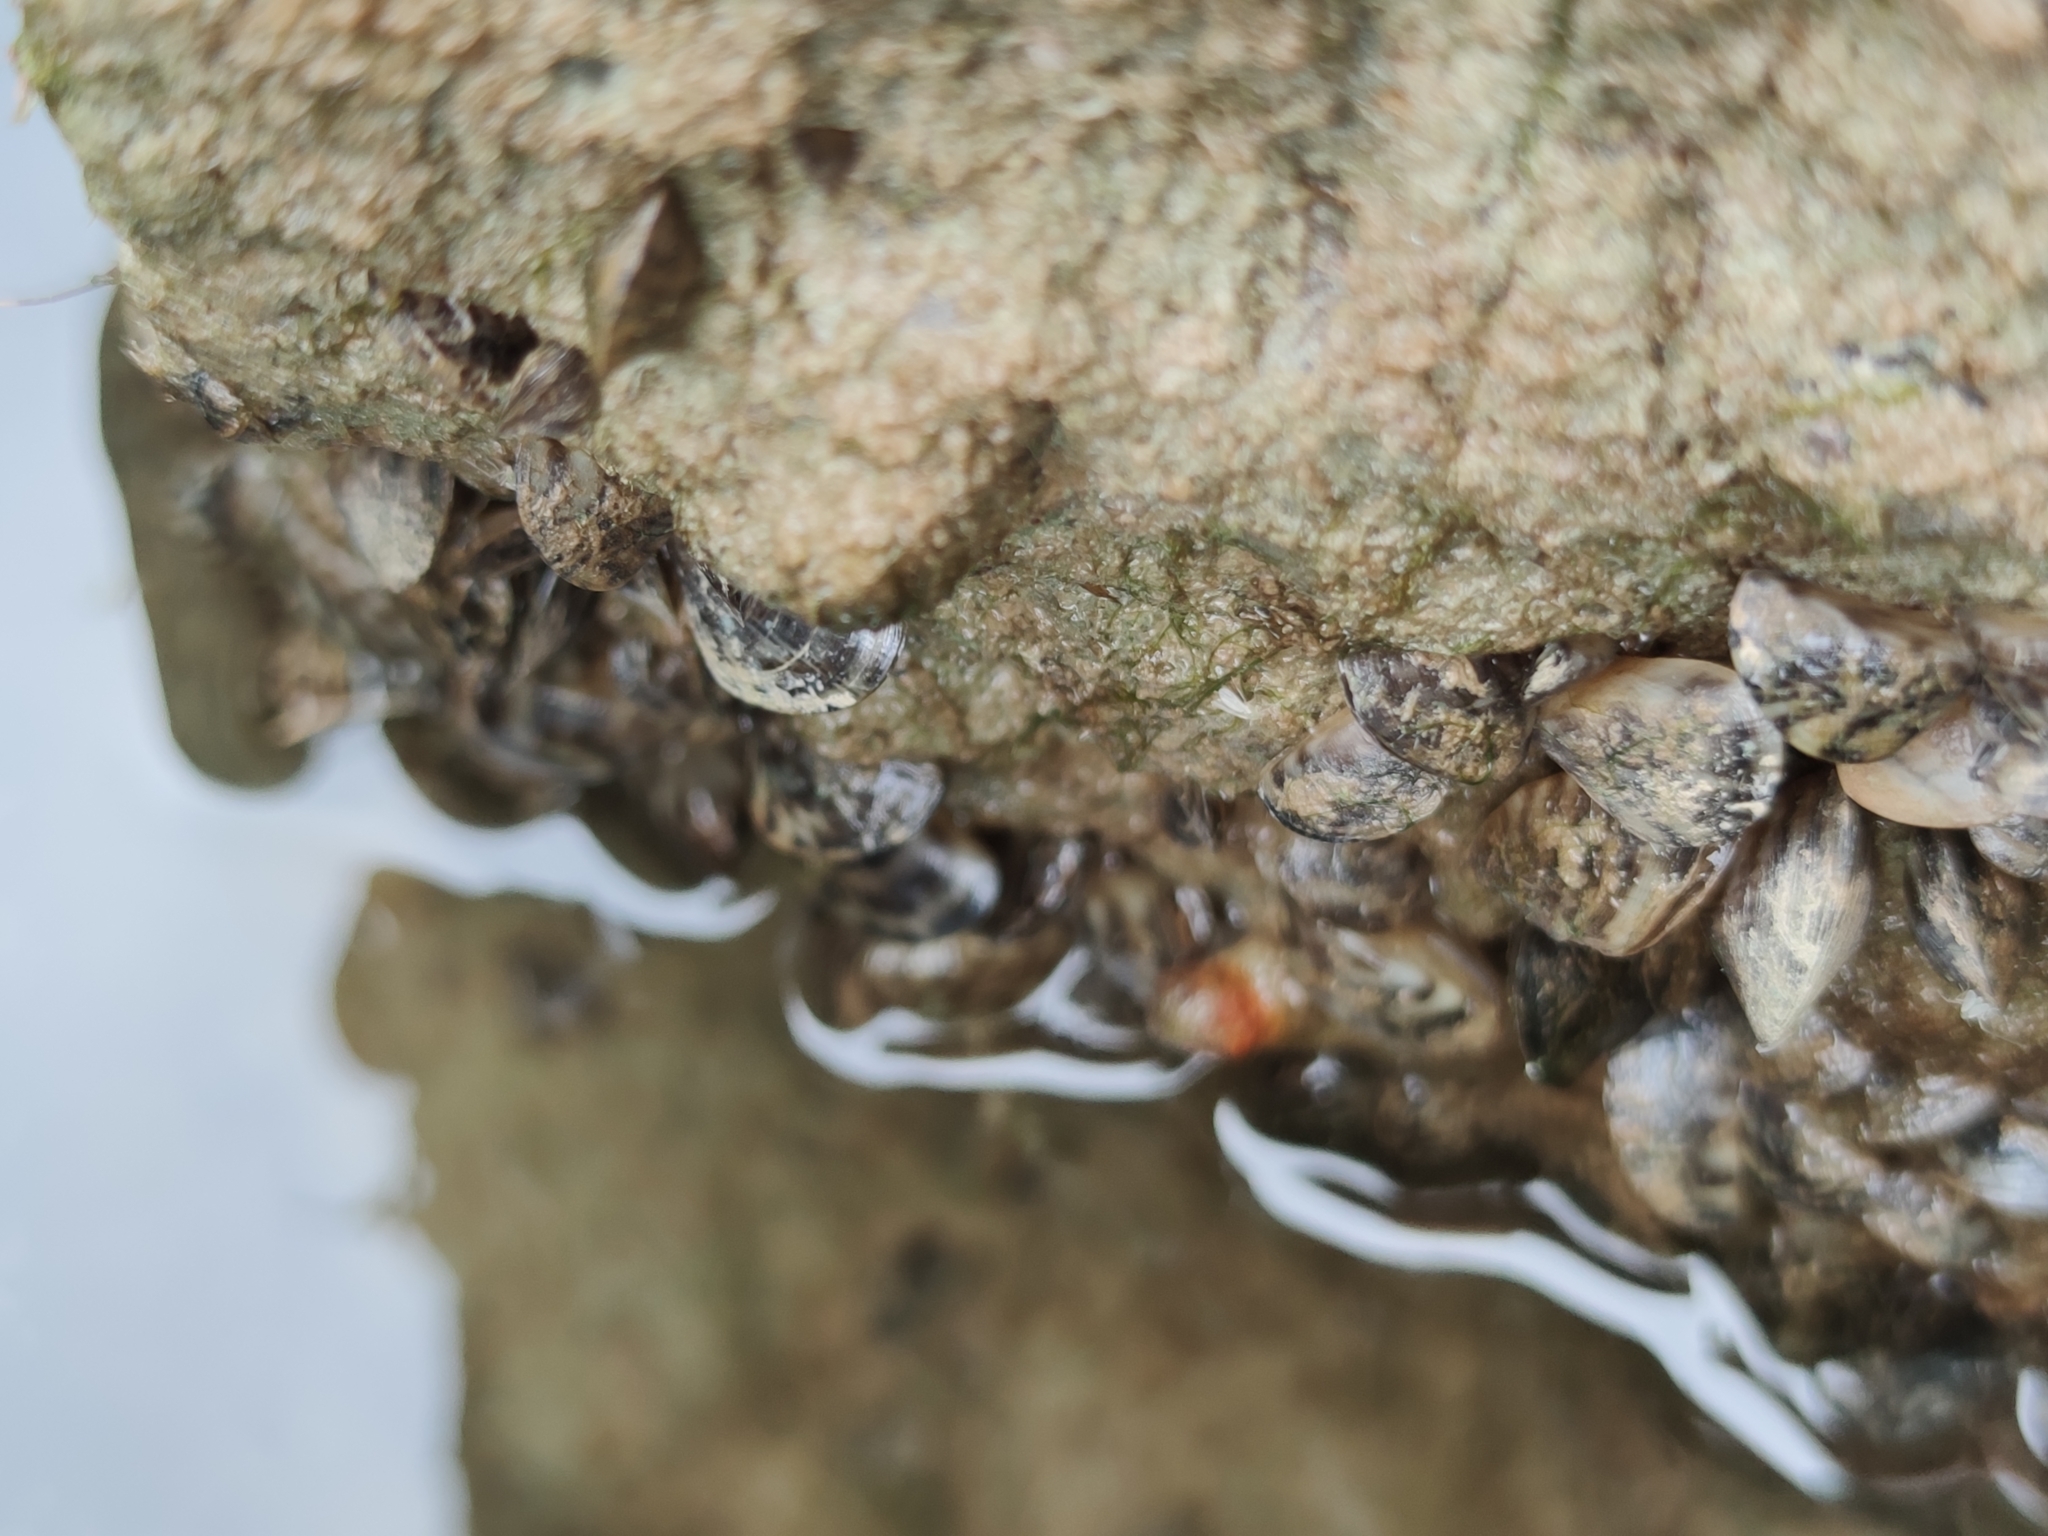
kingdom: Animalia
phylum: Mollusca
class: Bivalvia
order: Myida
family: Dreissenidae
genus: Dreissena
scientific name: Dreissena polymorpha
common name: Zebra mussel
